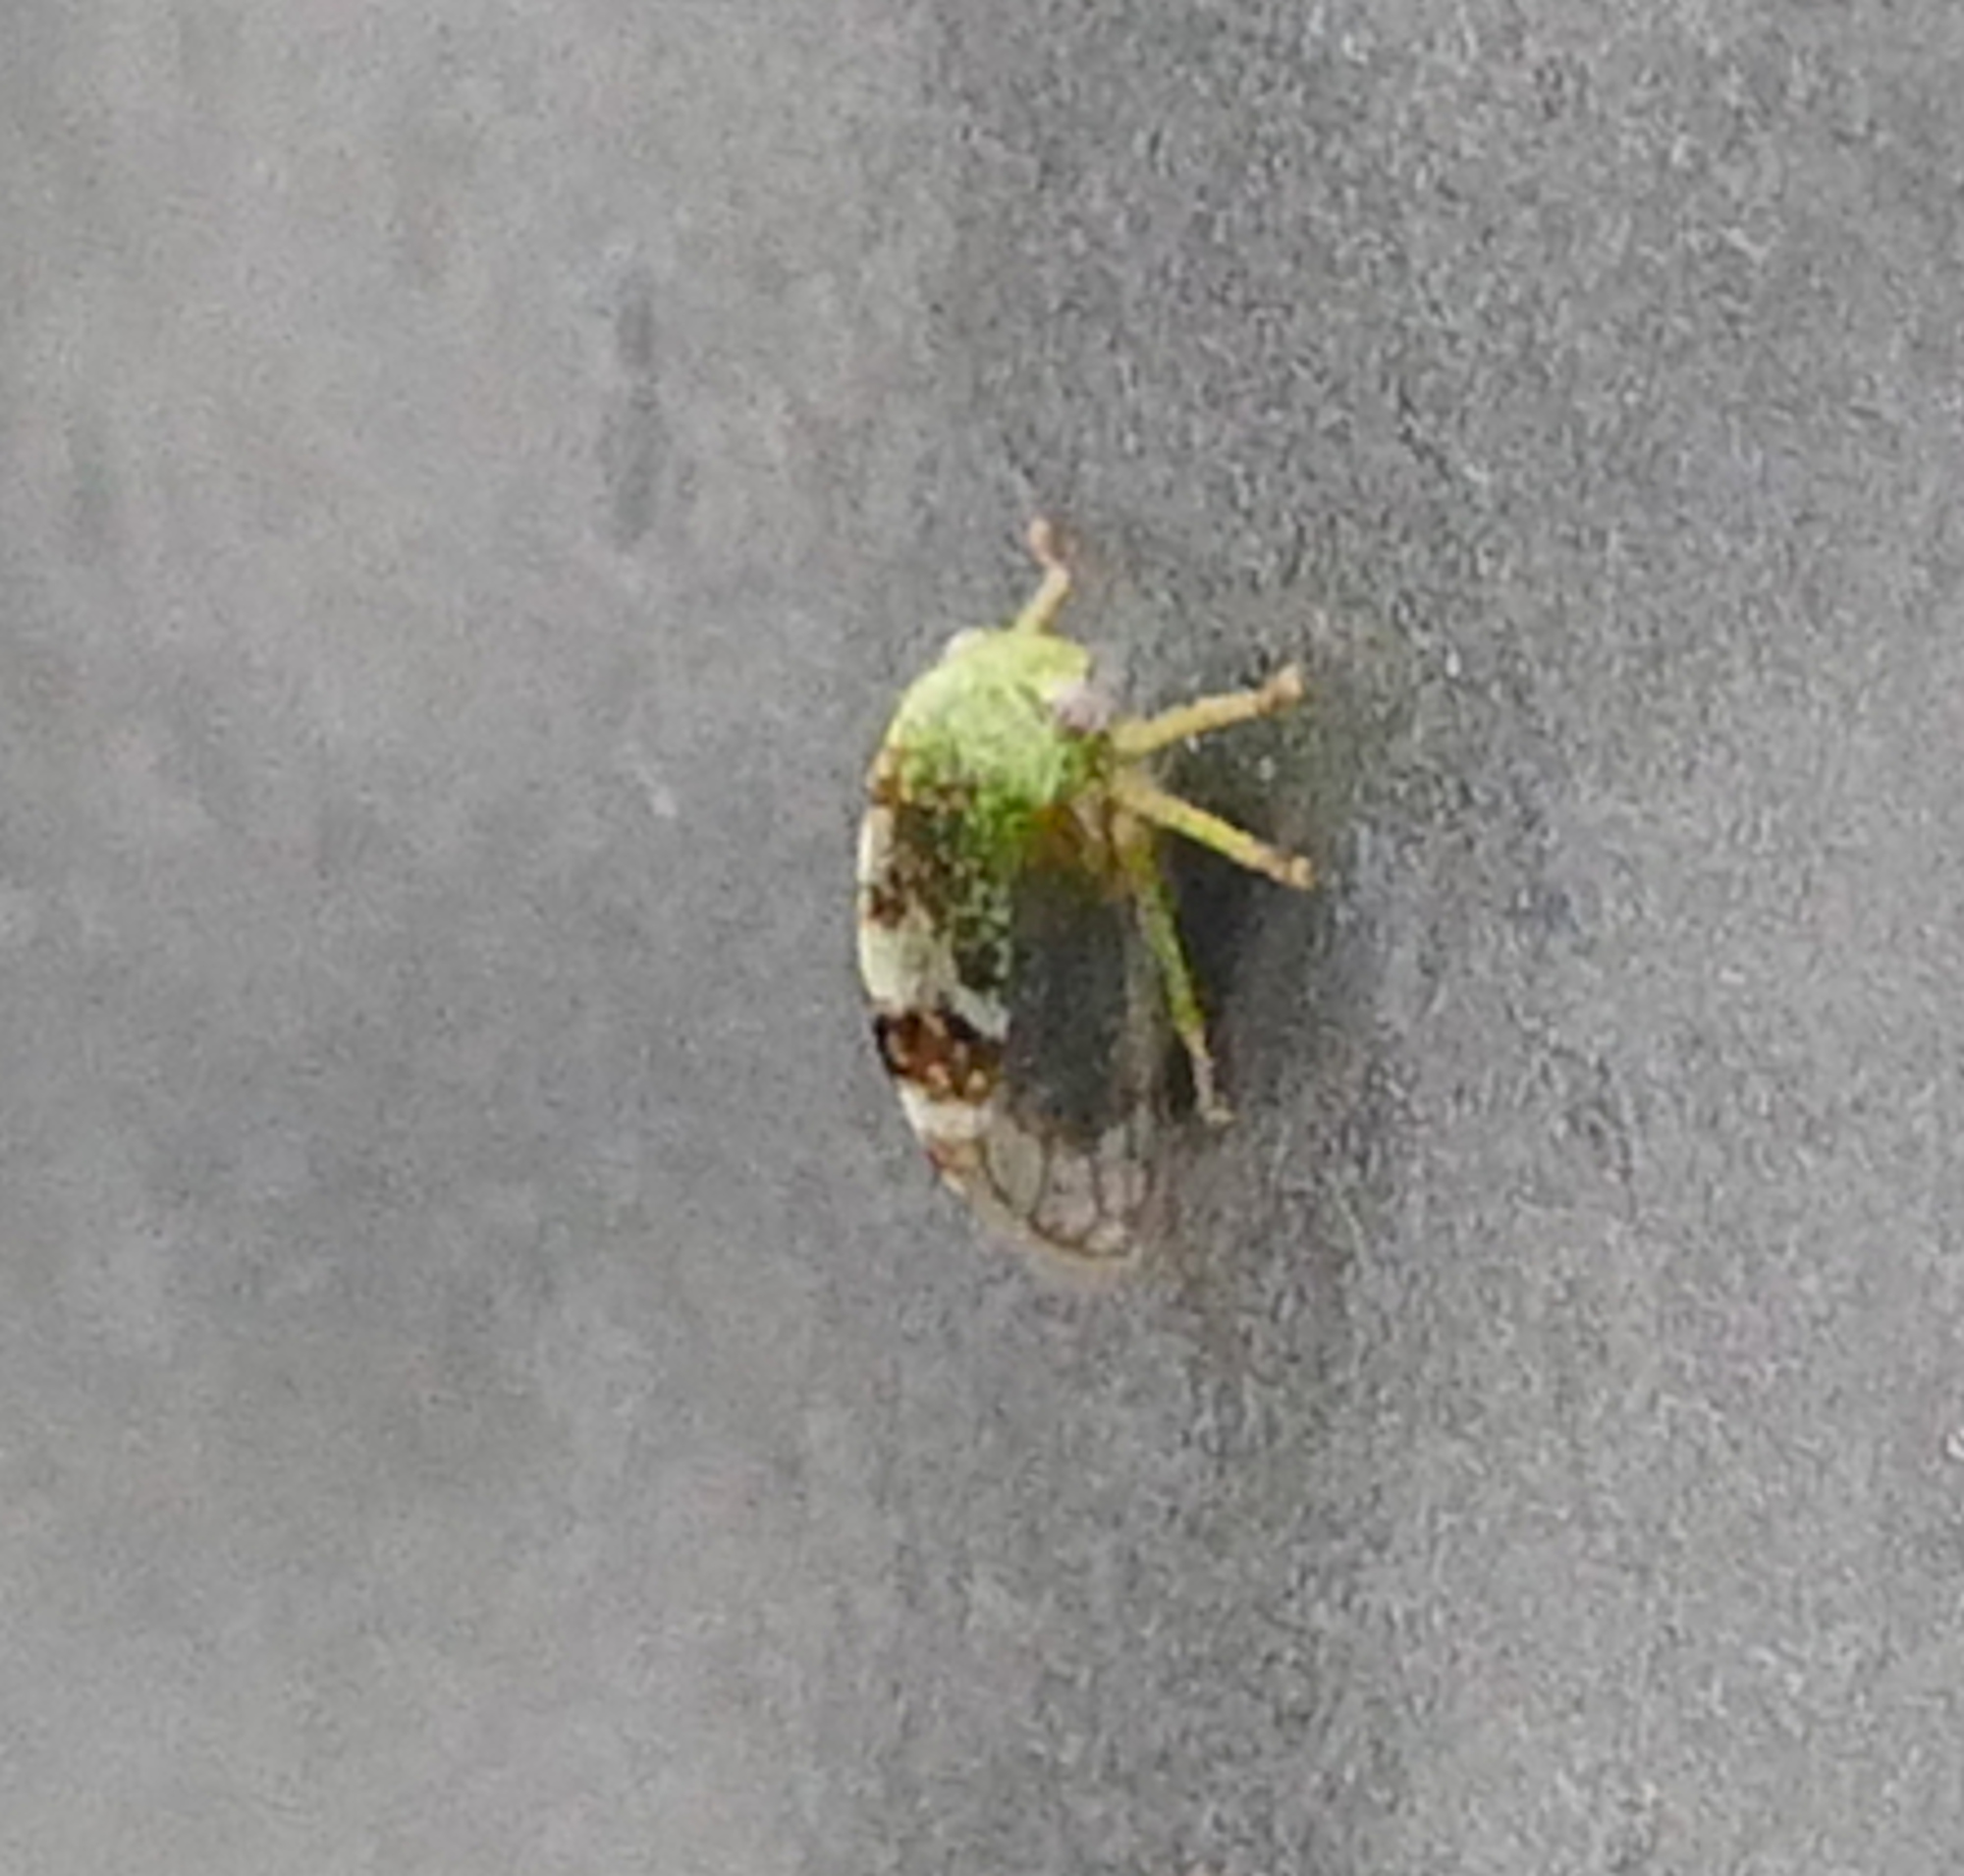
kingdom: Animalia
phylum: Arthropoda
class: Insecta
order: Hemiptera
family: Membracidae
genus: Cyrtolobus
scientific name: Cyrtolobus dixianus
